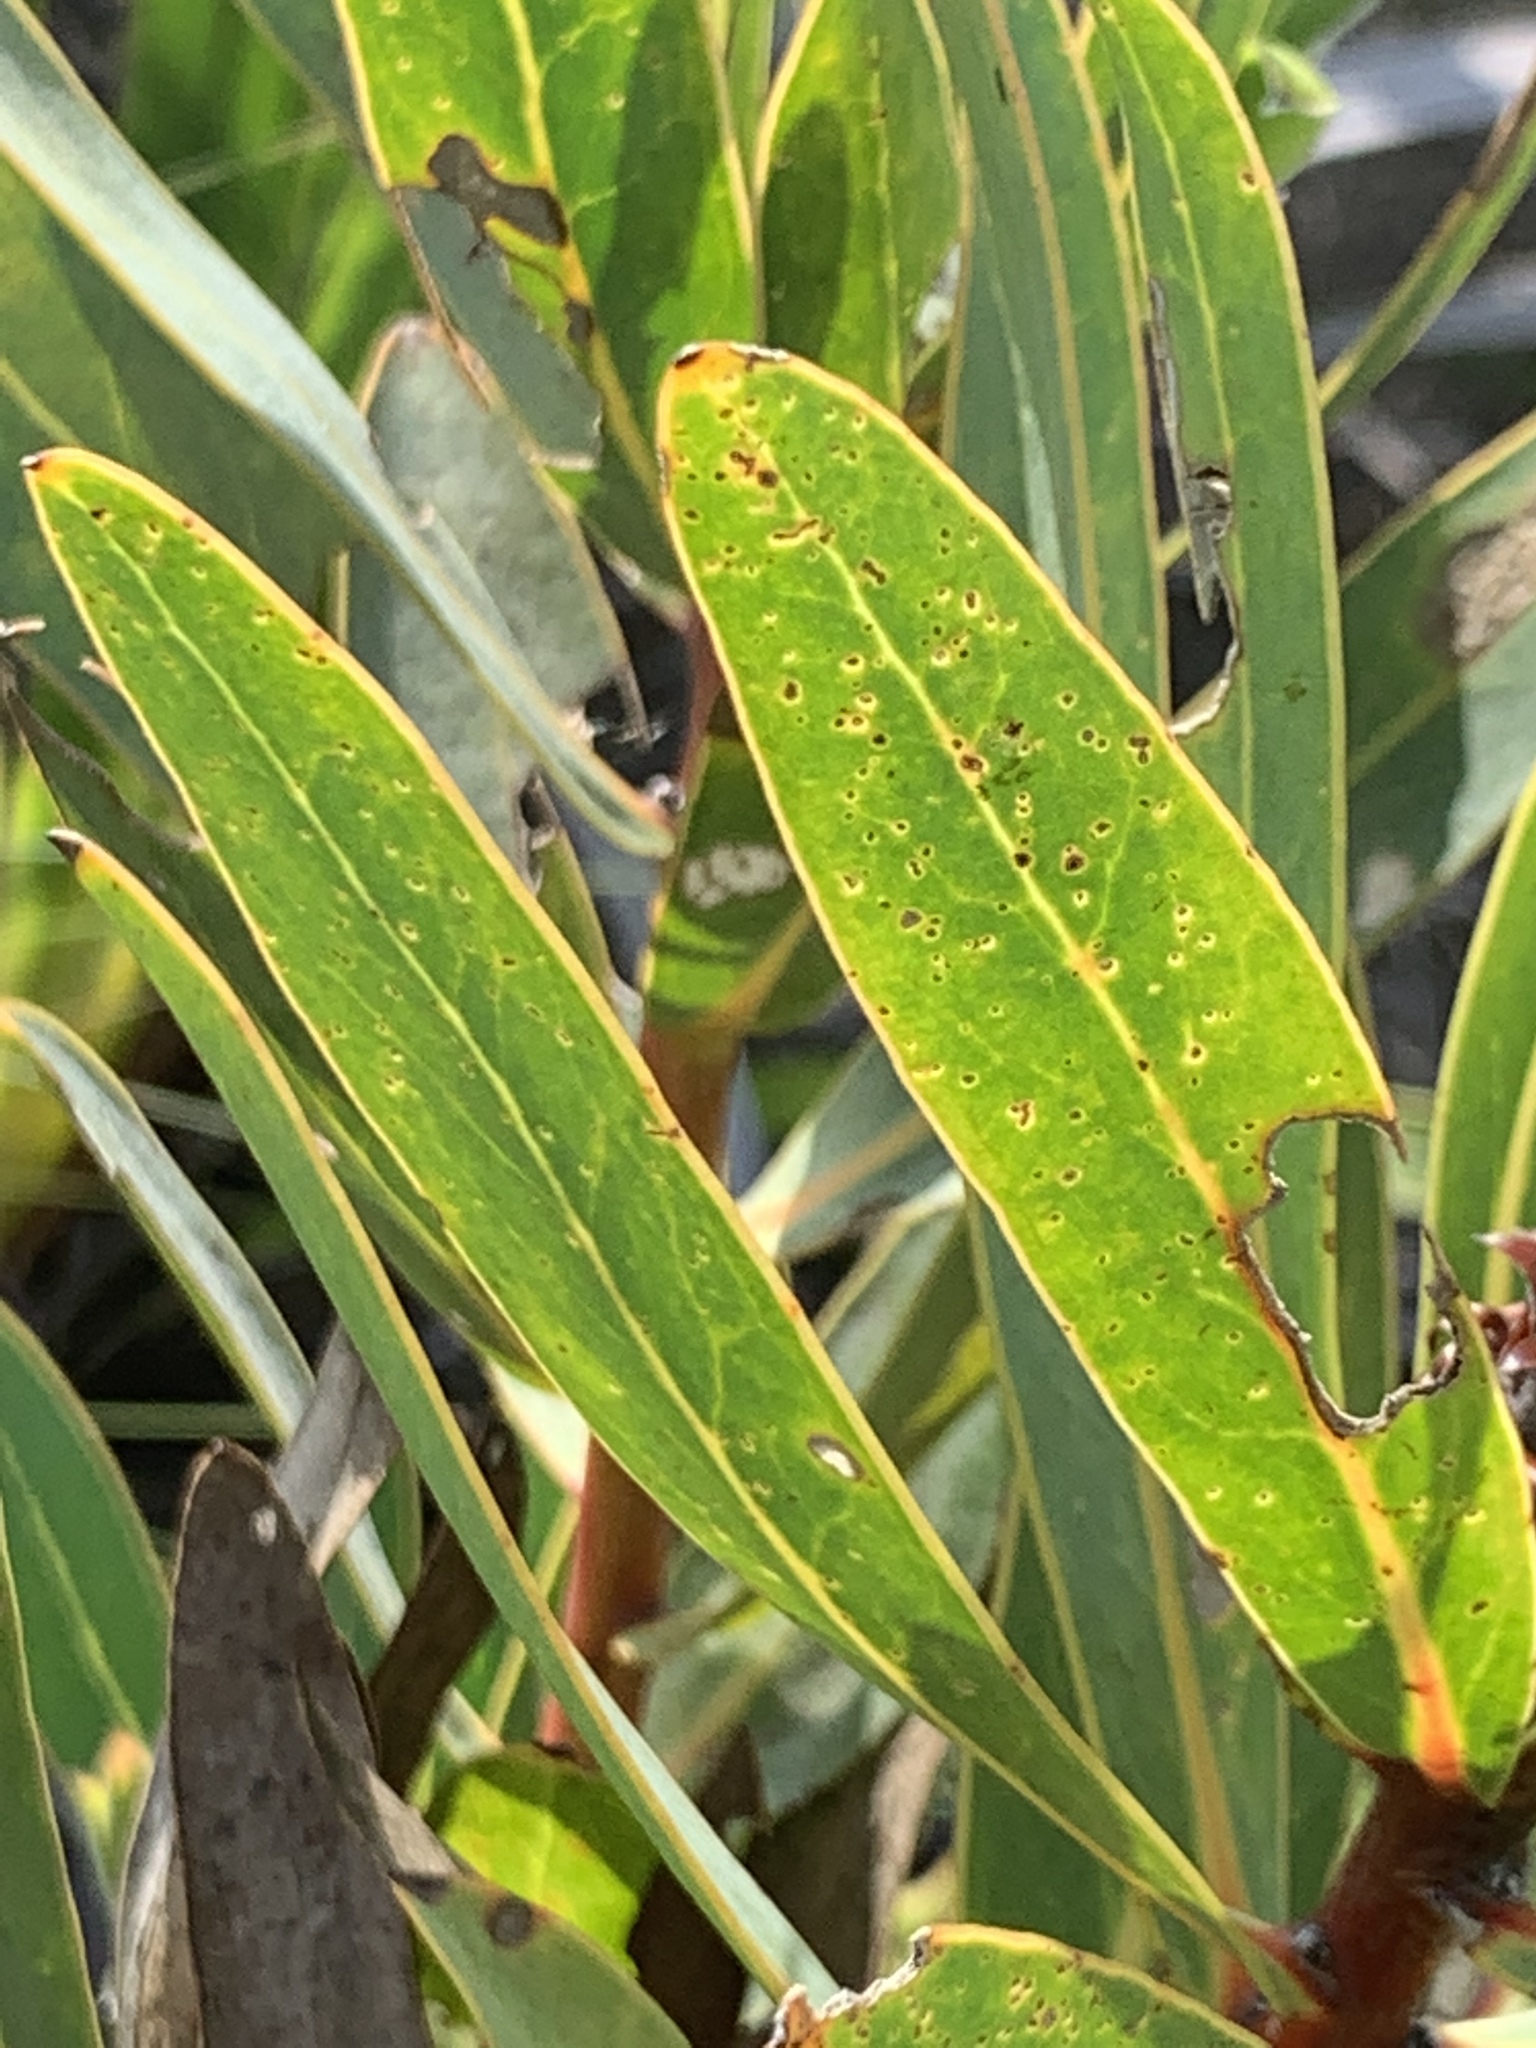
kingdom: Plantae
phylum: Tracheophyta
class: Magnoliopsida
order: Proteales
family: Proteaceae
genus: Protea
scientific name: Protea coronata
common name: Green sugarbush
